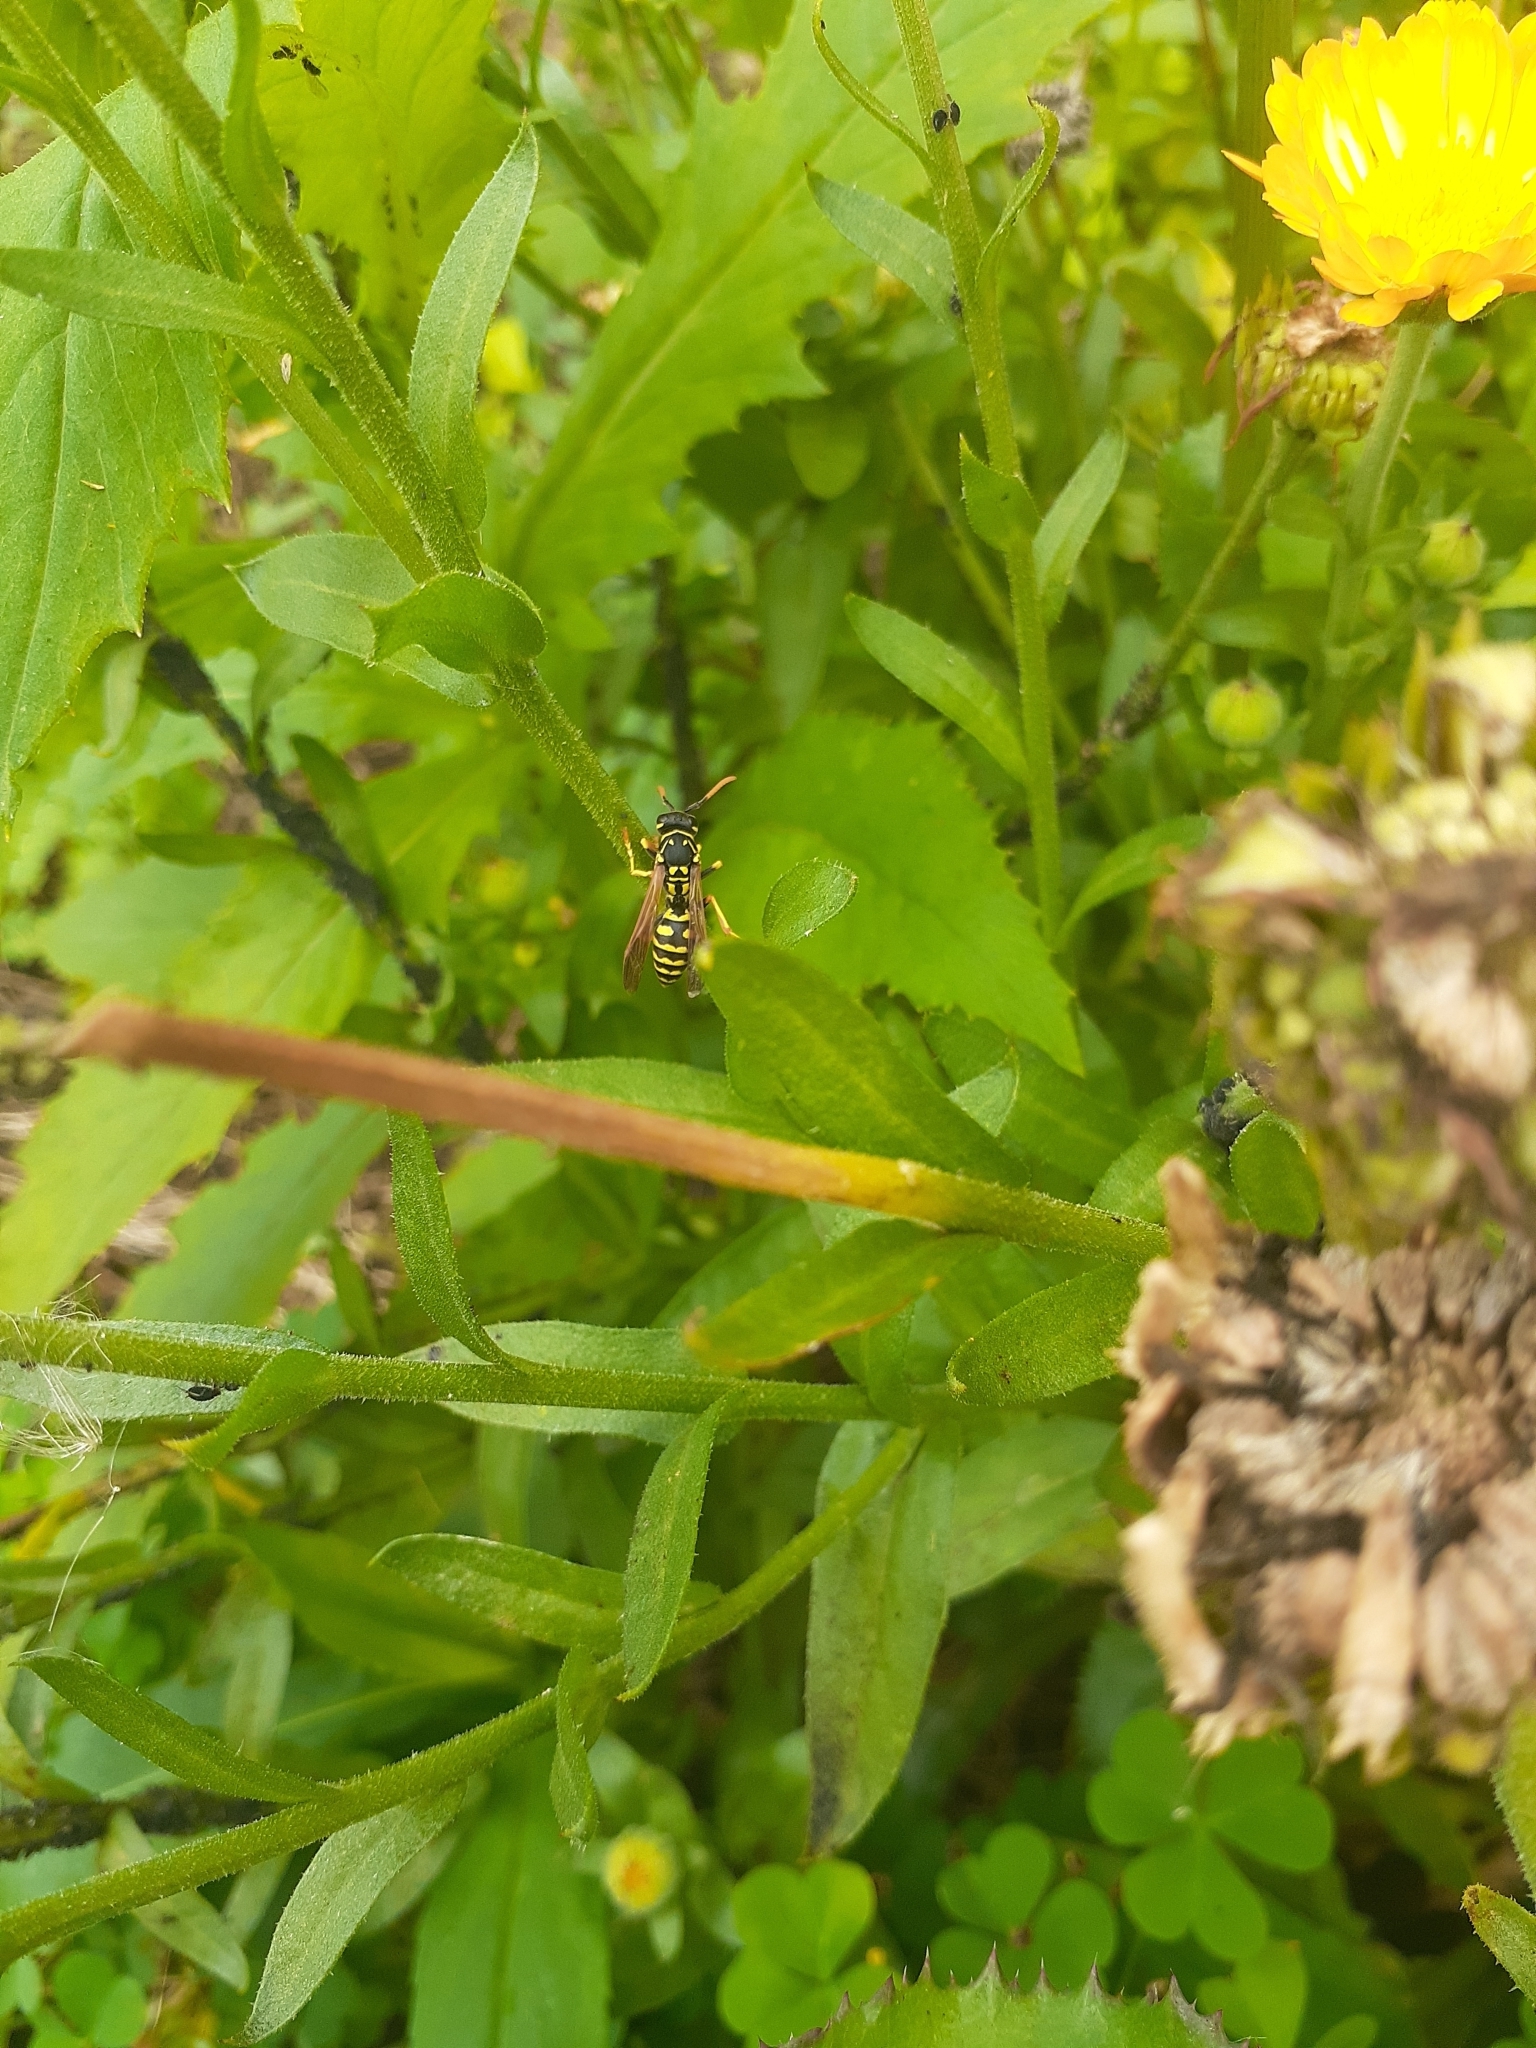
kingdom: Animalia
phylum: Arthropoda
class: Insecta
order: Hymenoptera
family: Eumenidae
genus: Polistes
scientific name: Polistes dominula
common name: Paper wasp
